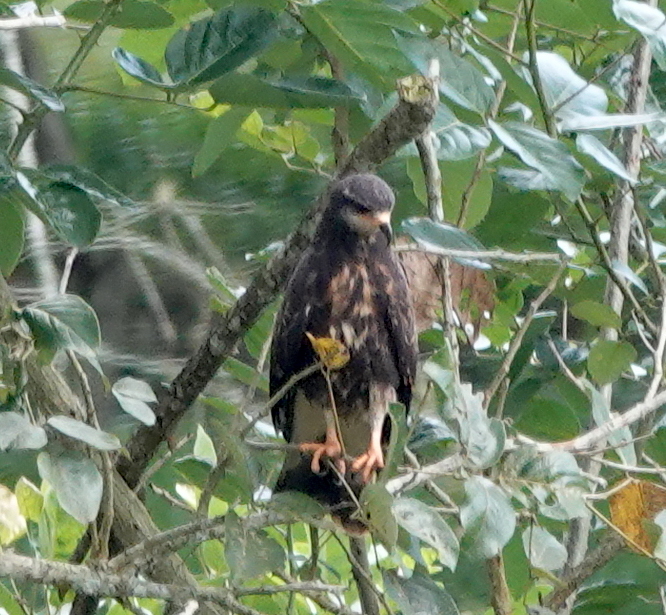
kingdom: Animalia
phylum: Chordata
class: Aves
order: Accipitriformes
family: Accipitridae
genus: Rostrhamus
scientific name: Rostrhamus sociabilis
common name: Snail kite
